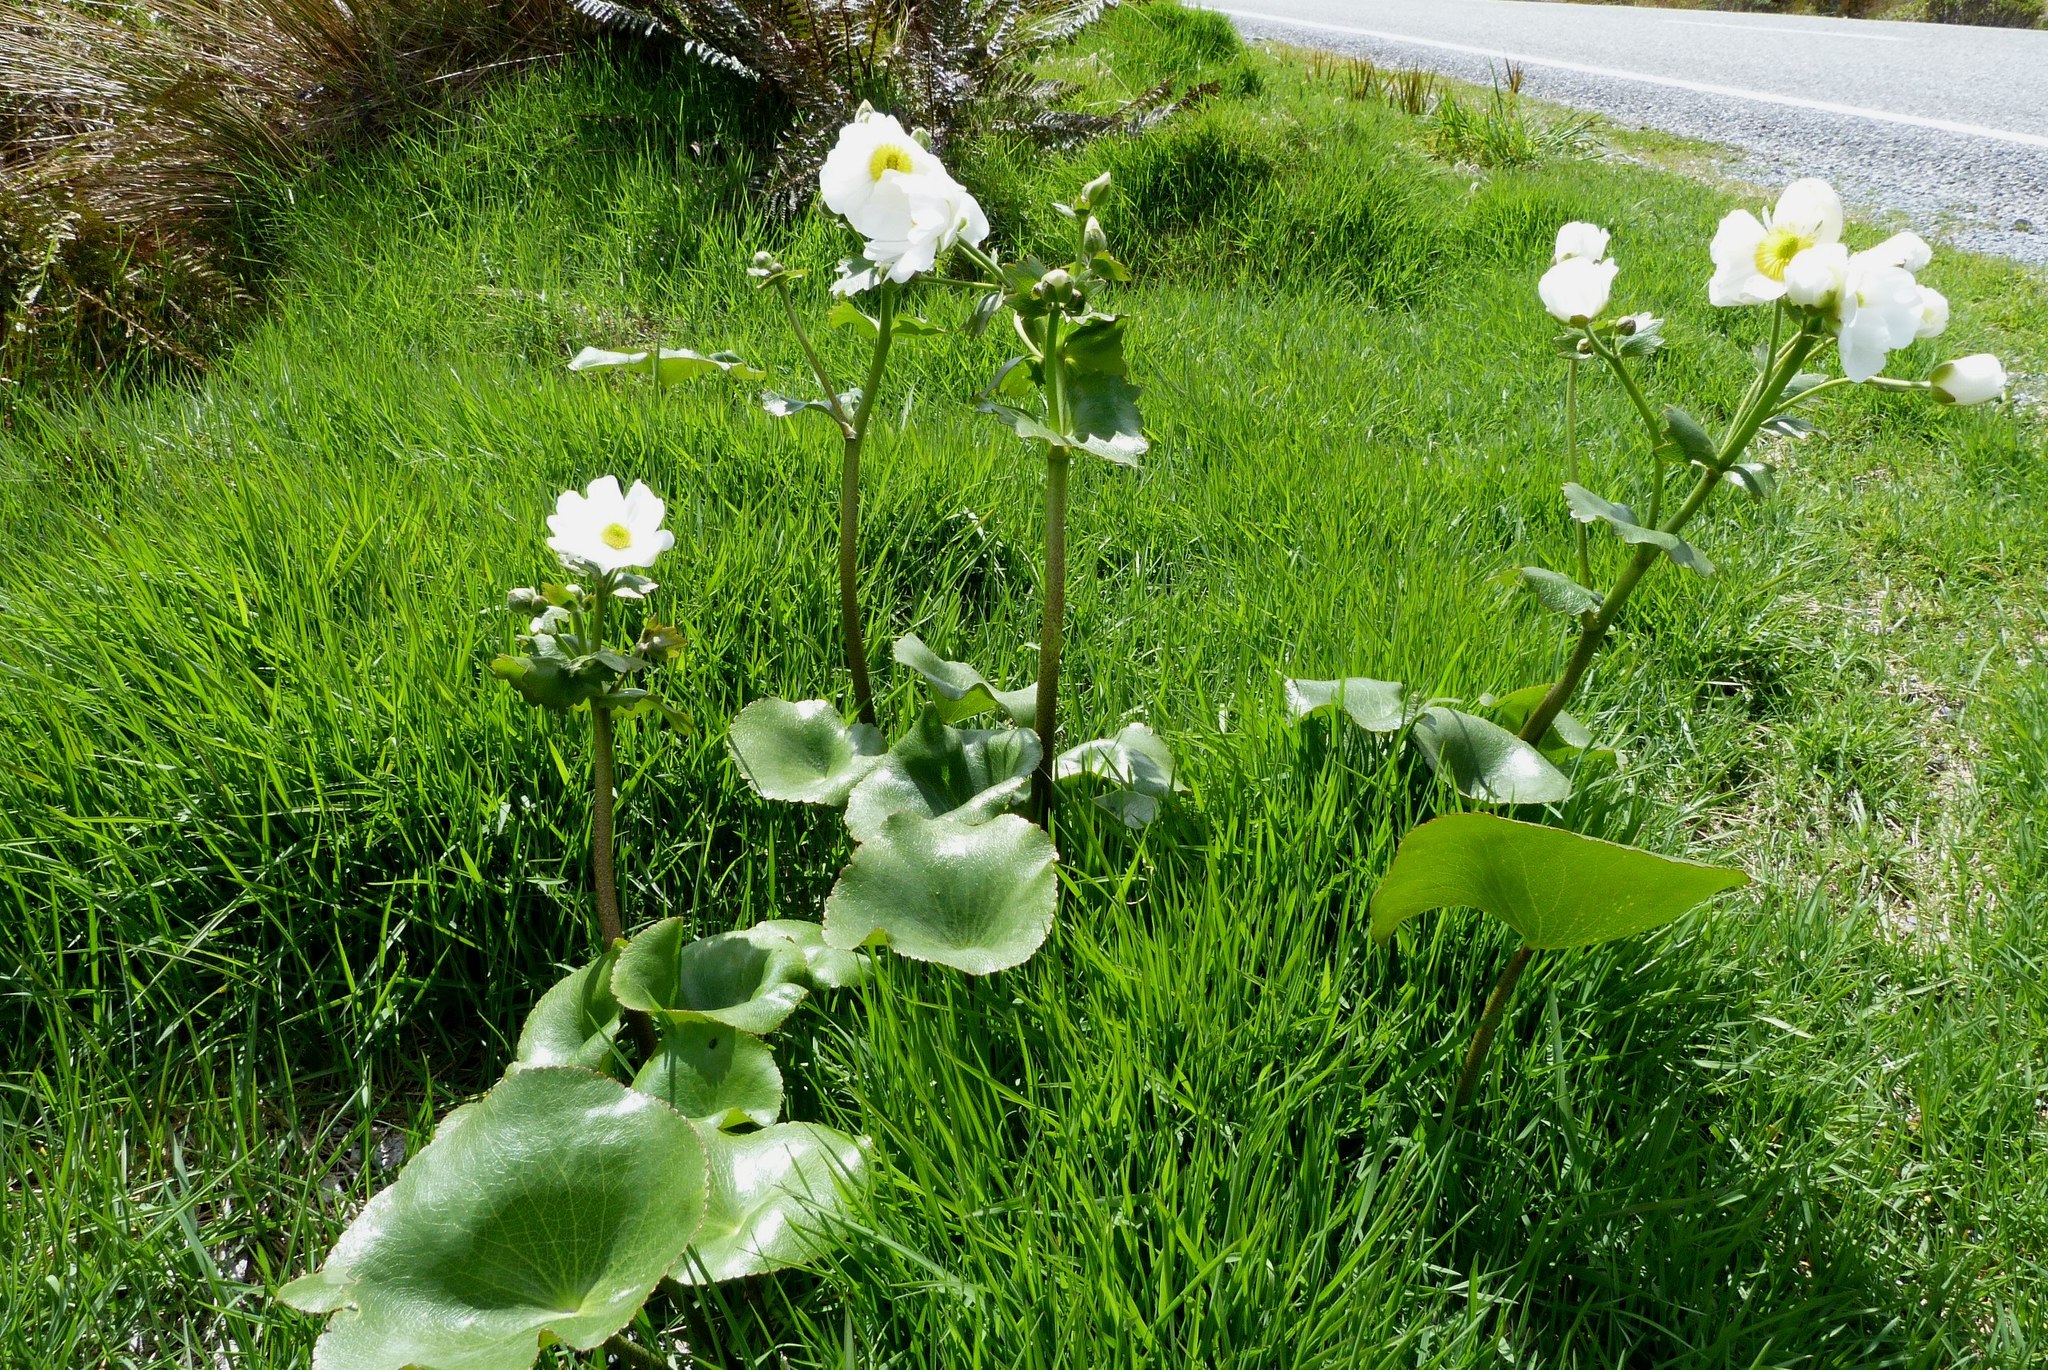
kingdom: Plantae
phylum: Tracheophyta
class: Magnoliopsida
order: Ranunculales
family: Ranunculaceae
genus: Ranunculus
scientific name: Ranunculus lyallii
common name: Mountain-lily
